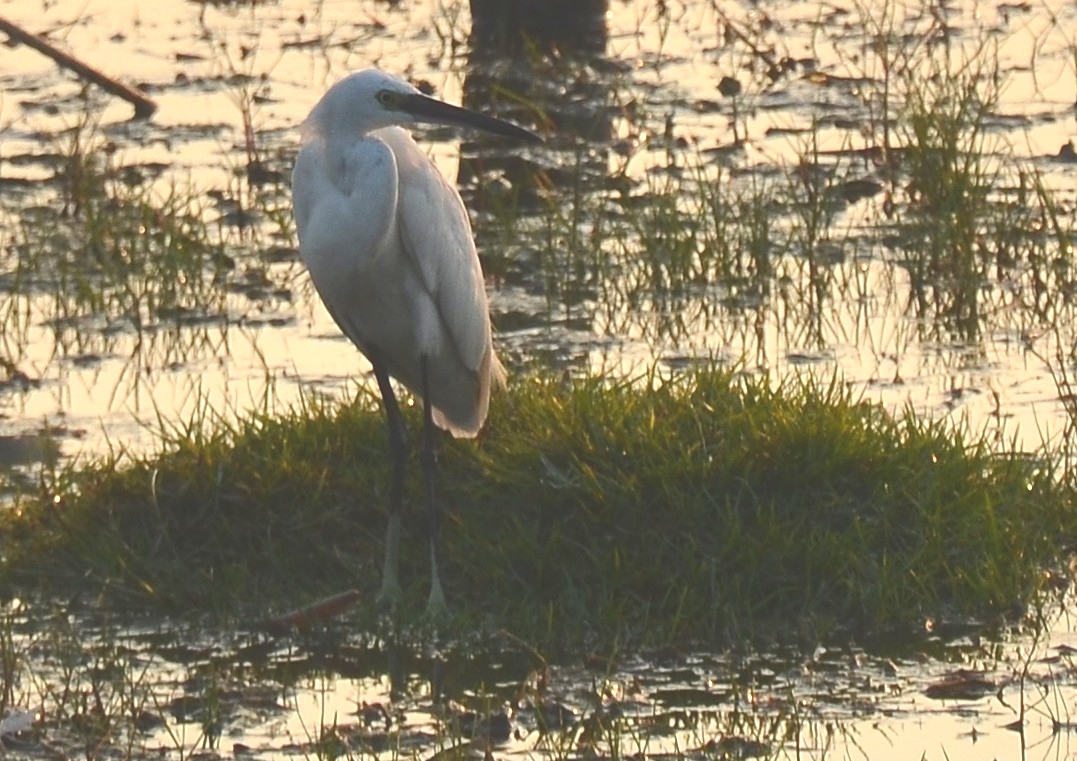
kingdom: Animalia
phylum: Chordata
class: Aves
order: Pelecaniformes
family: Ardeidae
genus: Egretta
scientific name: Egretta garzetta
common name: Little egret
